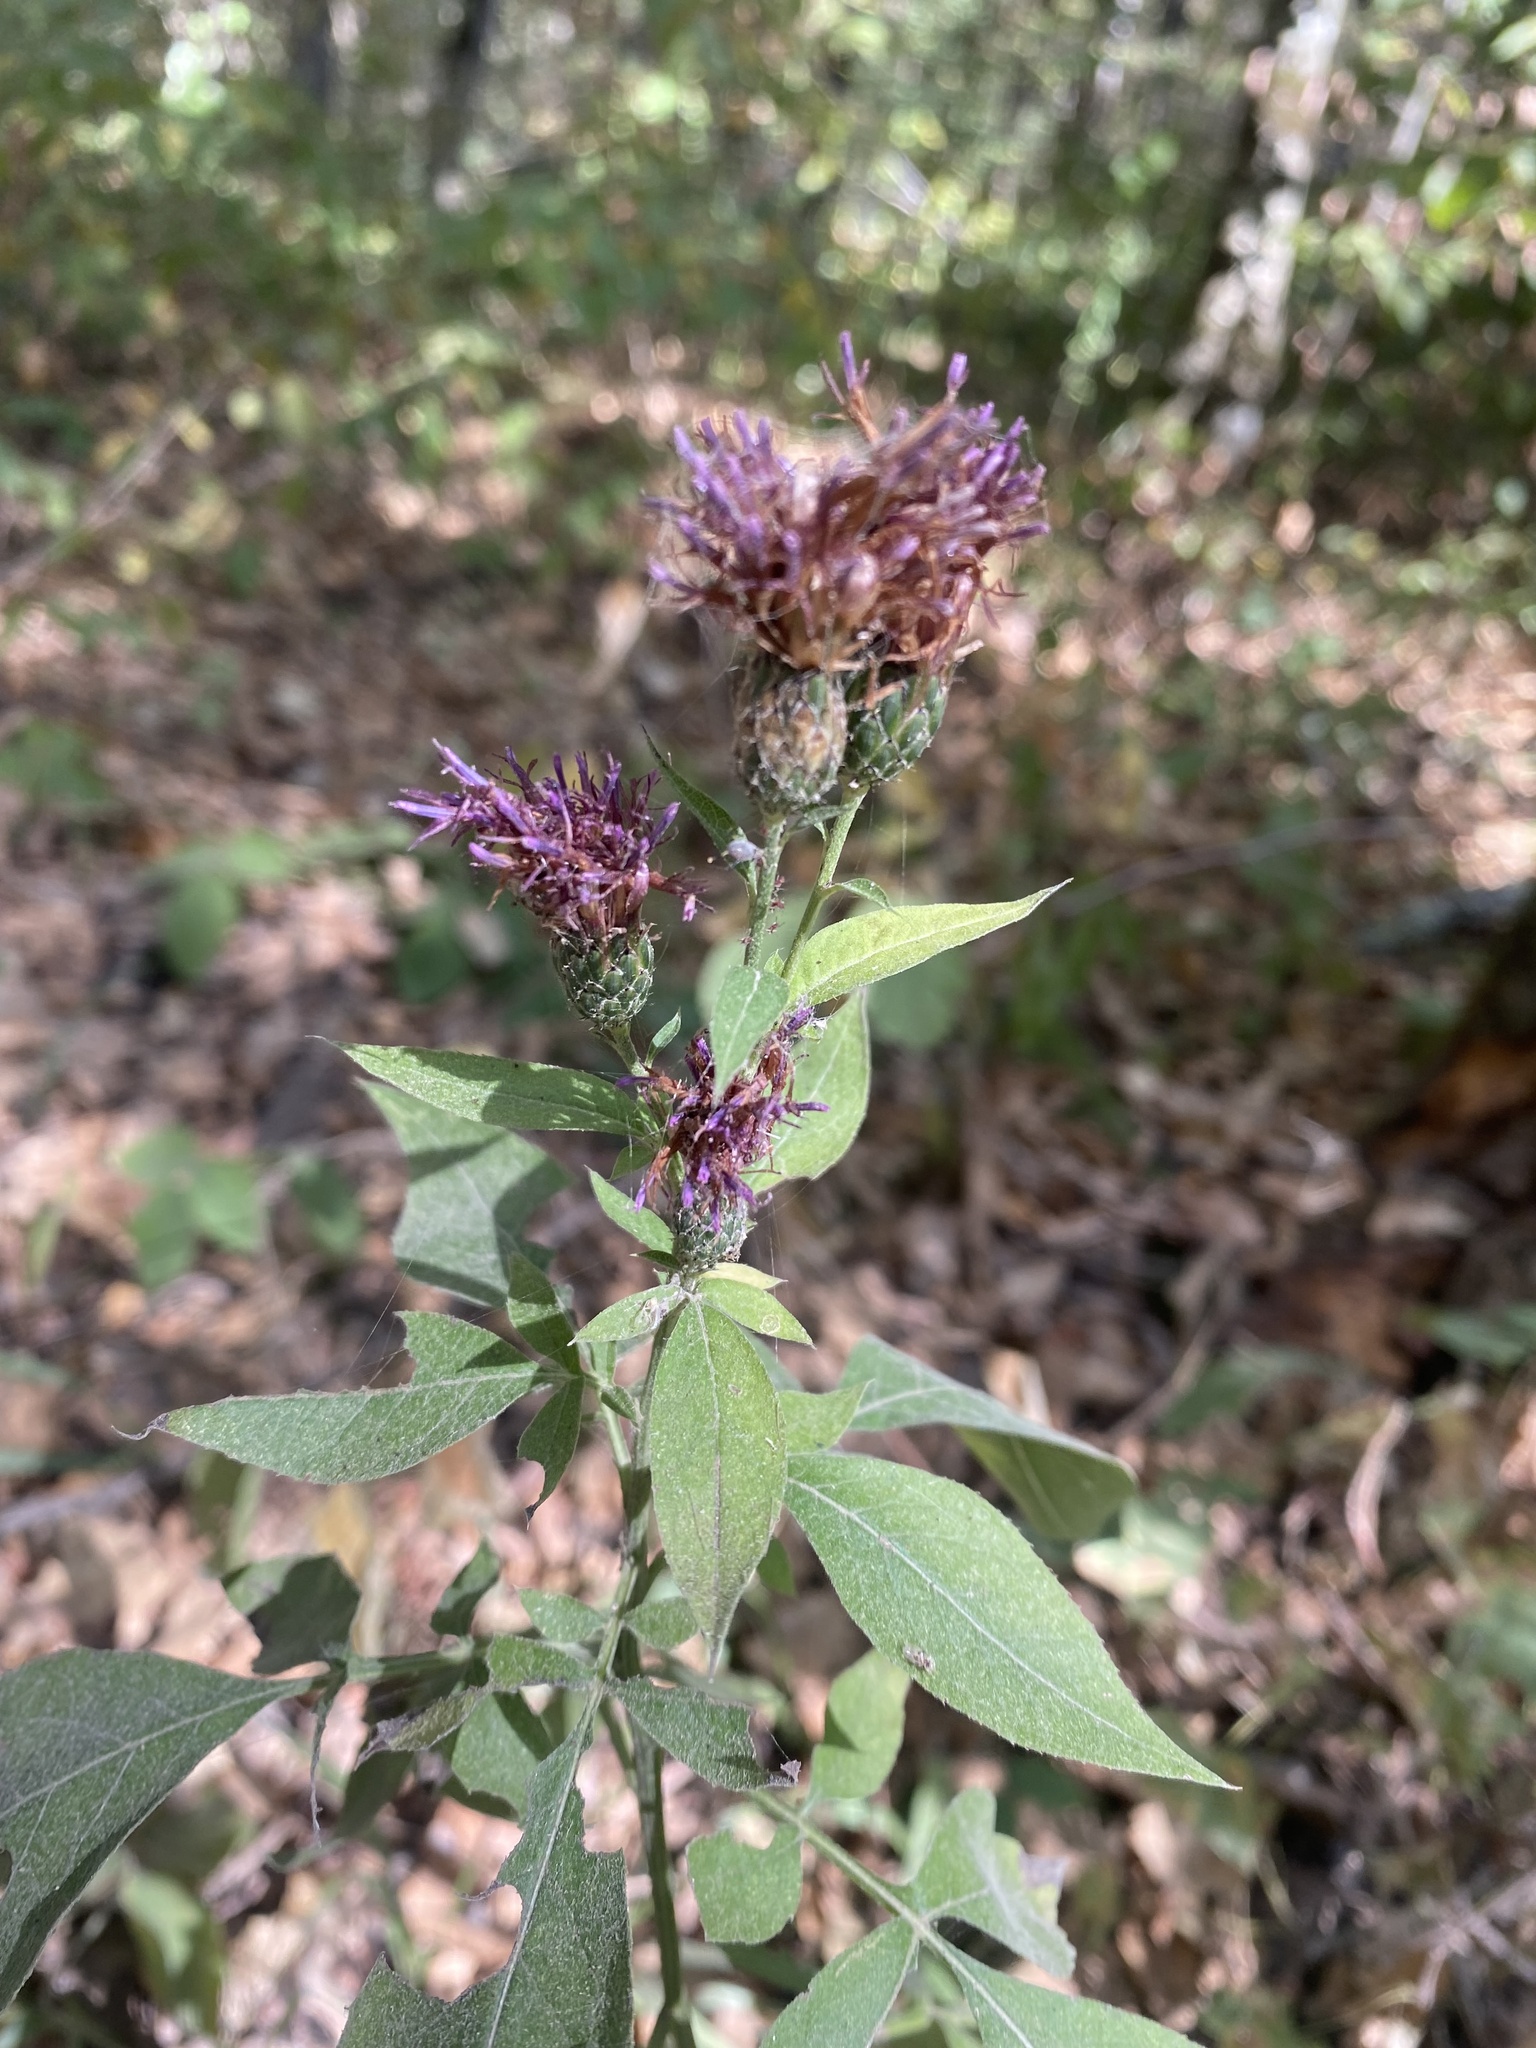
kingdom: Plantae
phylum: Tracheophyta
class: Magnoliopsida
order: Asterales
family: Asteraceae
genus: Klasea
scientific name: Klasea quinquefolia
